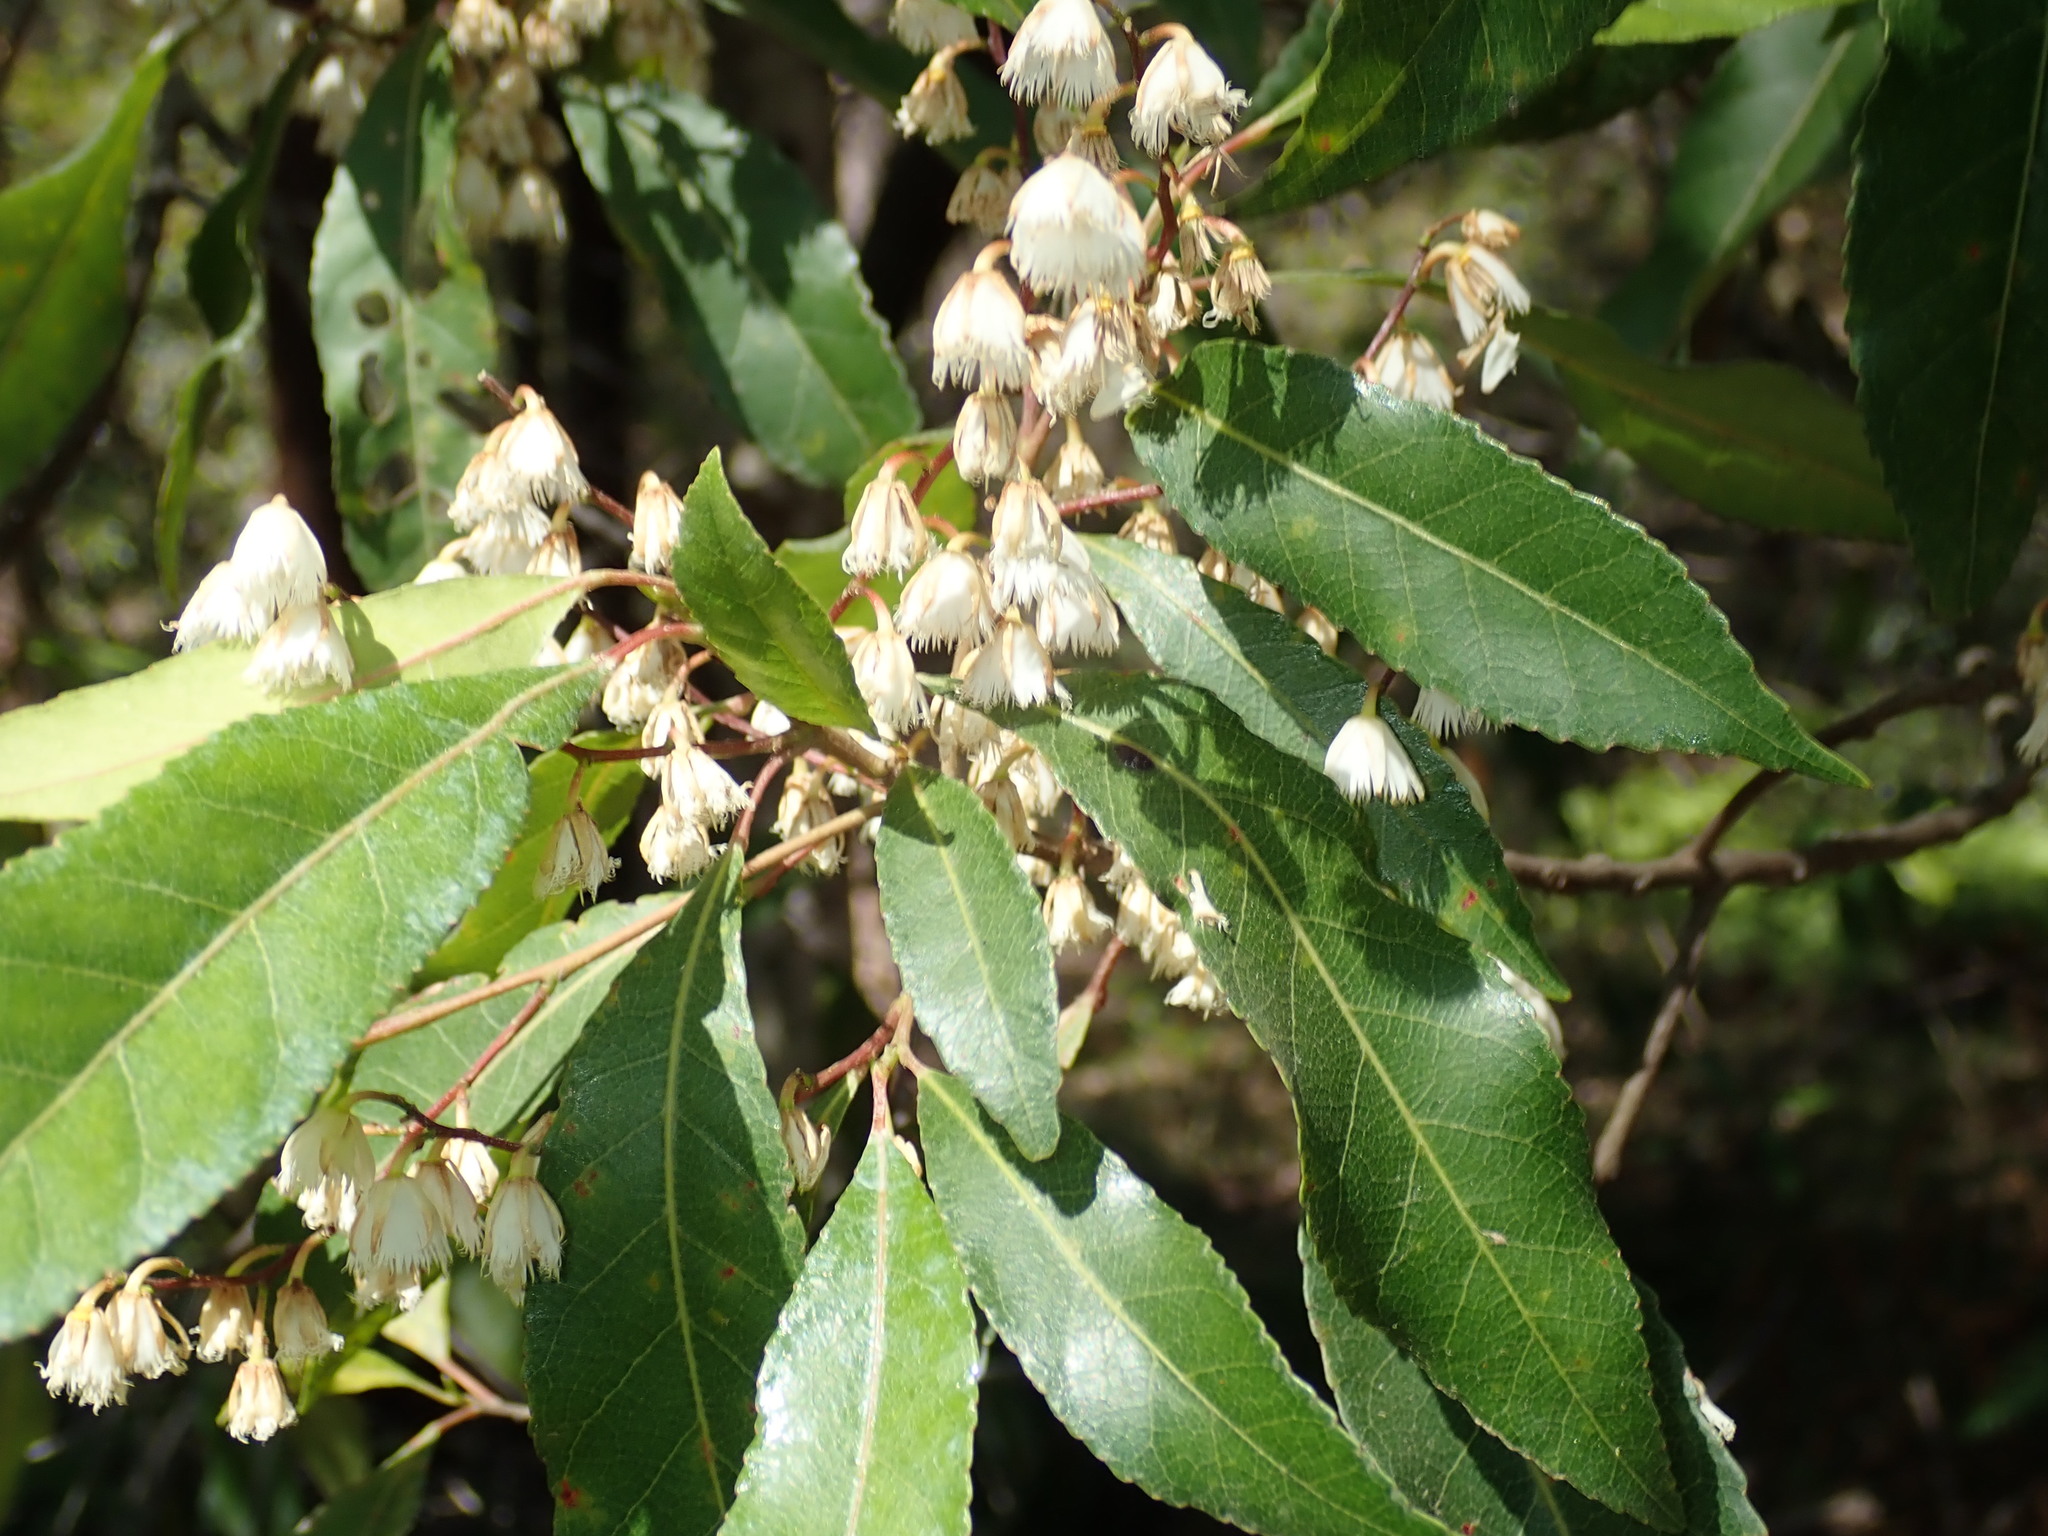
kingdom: Plantae
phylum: Tracheophyta
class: Magnoliopsida
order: Oxalidales
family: Elaeocarpaceae
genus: Elaeocarpus
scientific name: Elaeocarpus reticulatus
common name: Ash quandong
